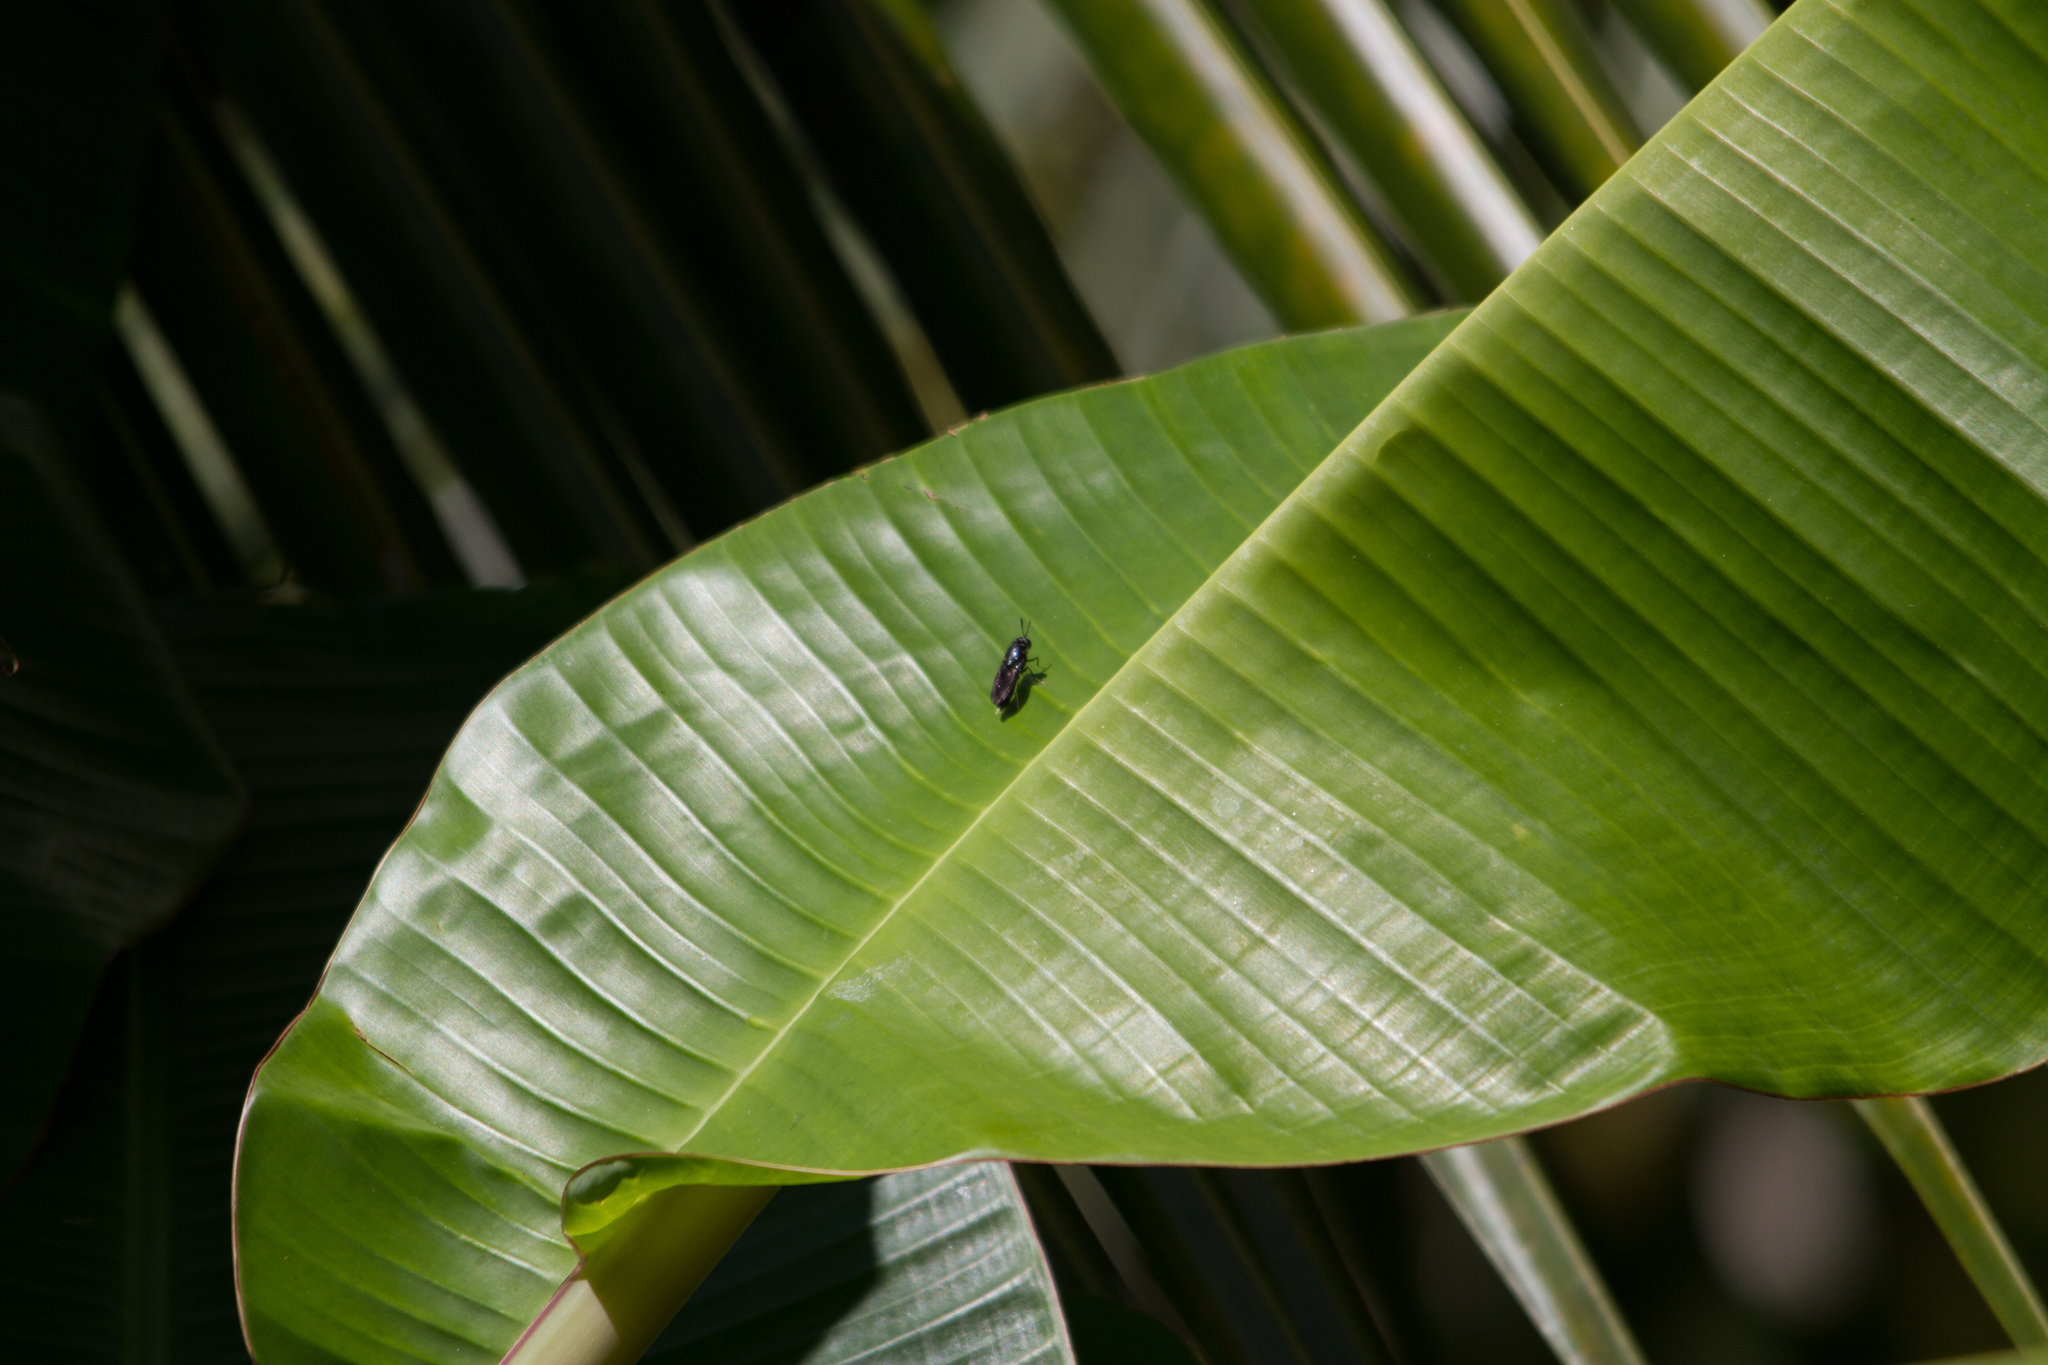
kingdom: Animalia
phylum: Arthropoda
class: Insecta
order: Diptera
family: Stratiomyidae
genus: Hermetia
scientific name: Hermetia illucens
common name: Black soldier fly
